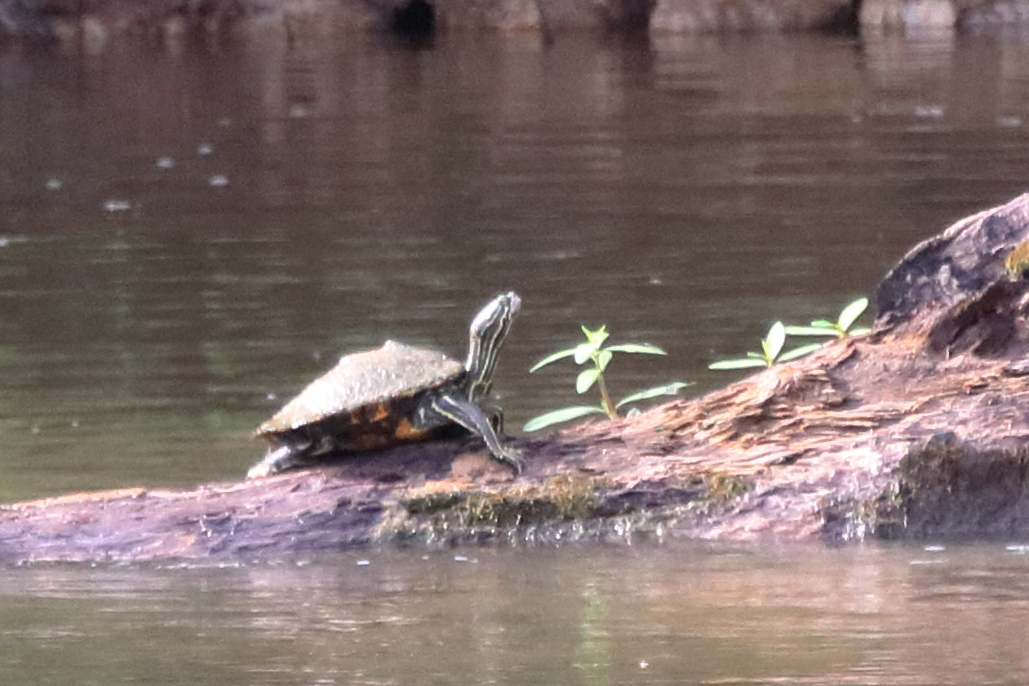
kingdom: Animalia
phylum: Chordata
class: Testudines
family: Emydidae
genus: Graptemys
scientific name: Graptemys oculifera
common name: Ringed map turtle
